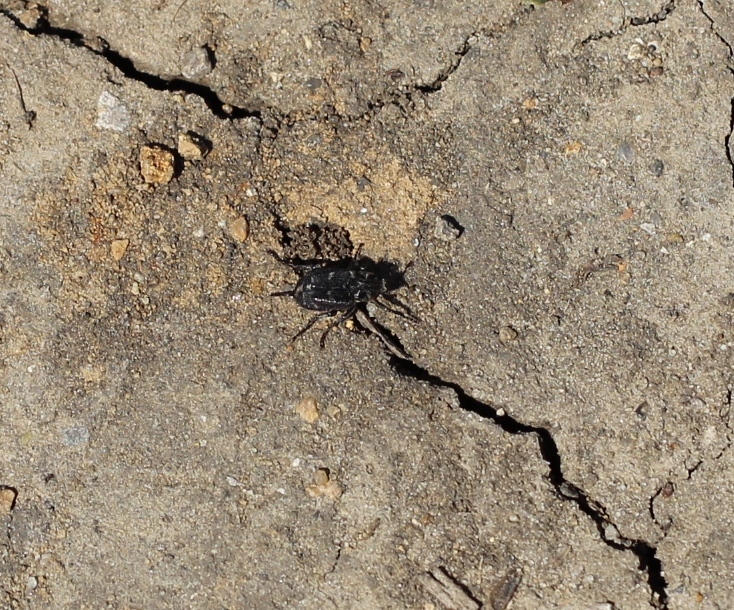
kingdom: Animalia
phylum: Arthropoda
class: Insecta
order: Coleoptera
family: Scarabaeidae
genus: Valgus
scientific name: Valgus hemipterus
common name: Bug flower chafer
